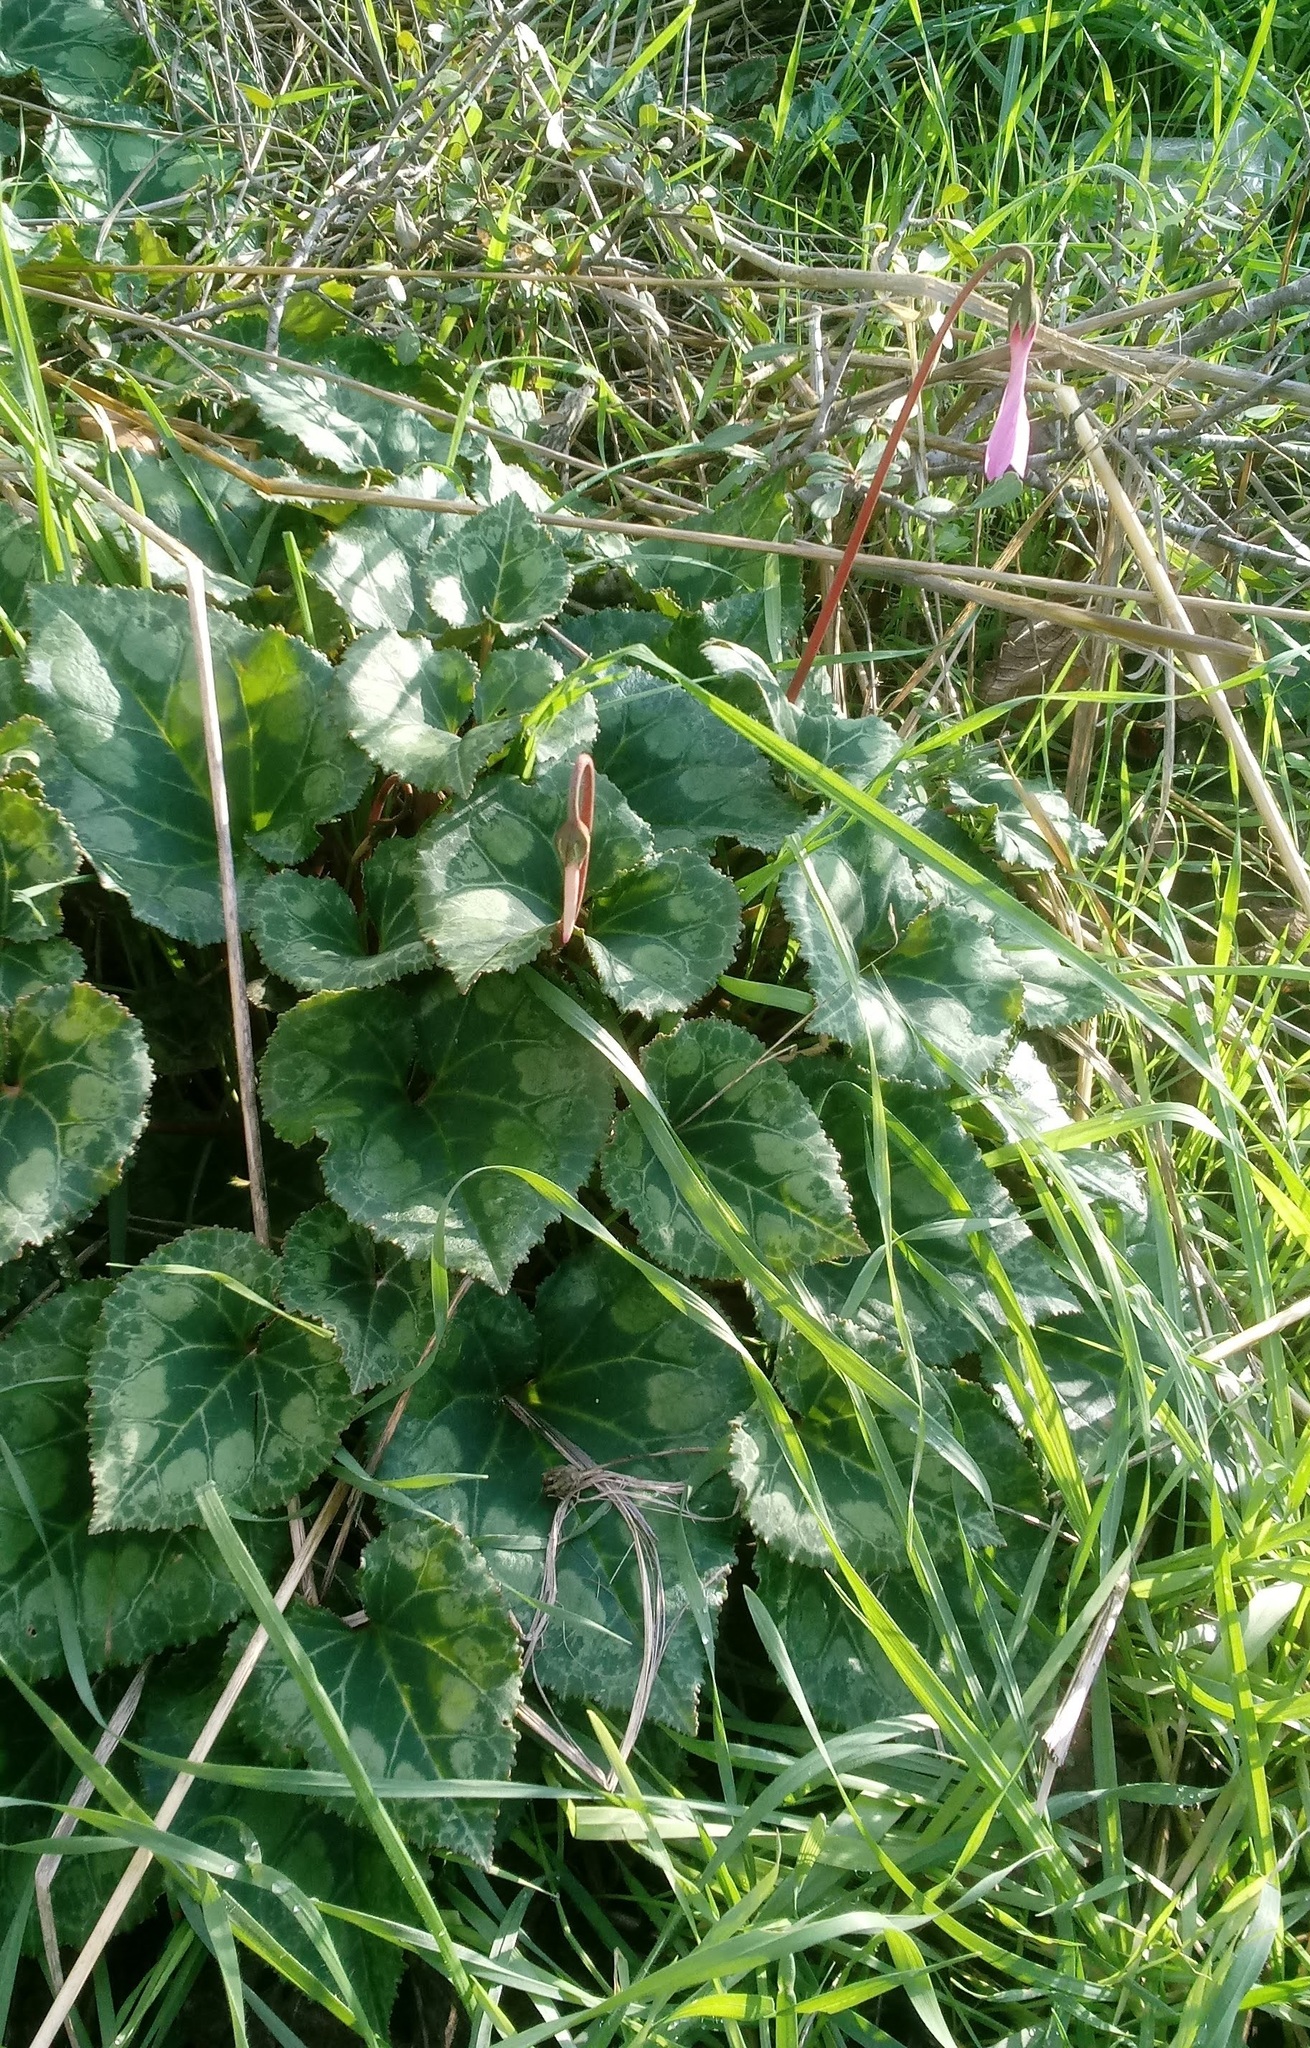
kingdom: Plantae
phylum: Tracheophyta
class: Magnoliopsida
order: Ericales
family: Primulaceae
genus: Cyclamen
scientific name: Cyclamen persicum
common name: Florist's cyclamen
